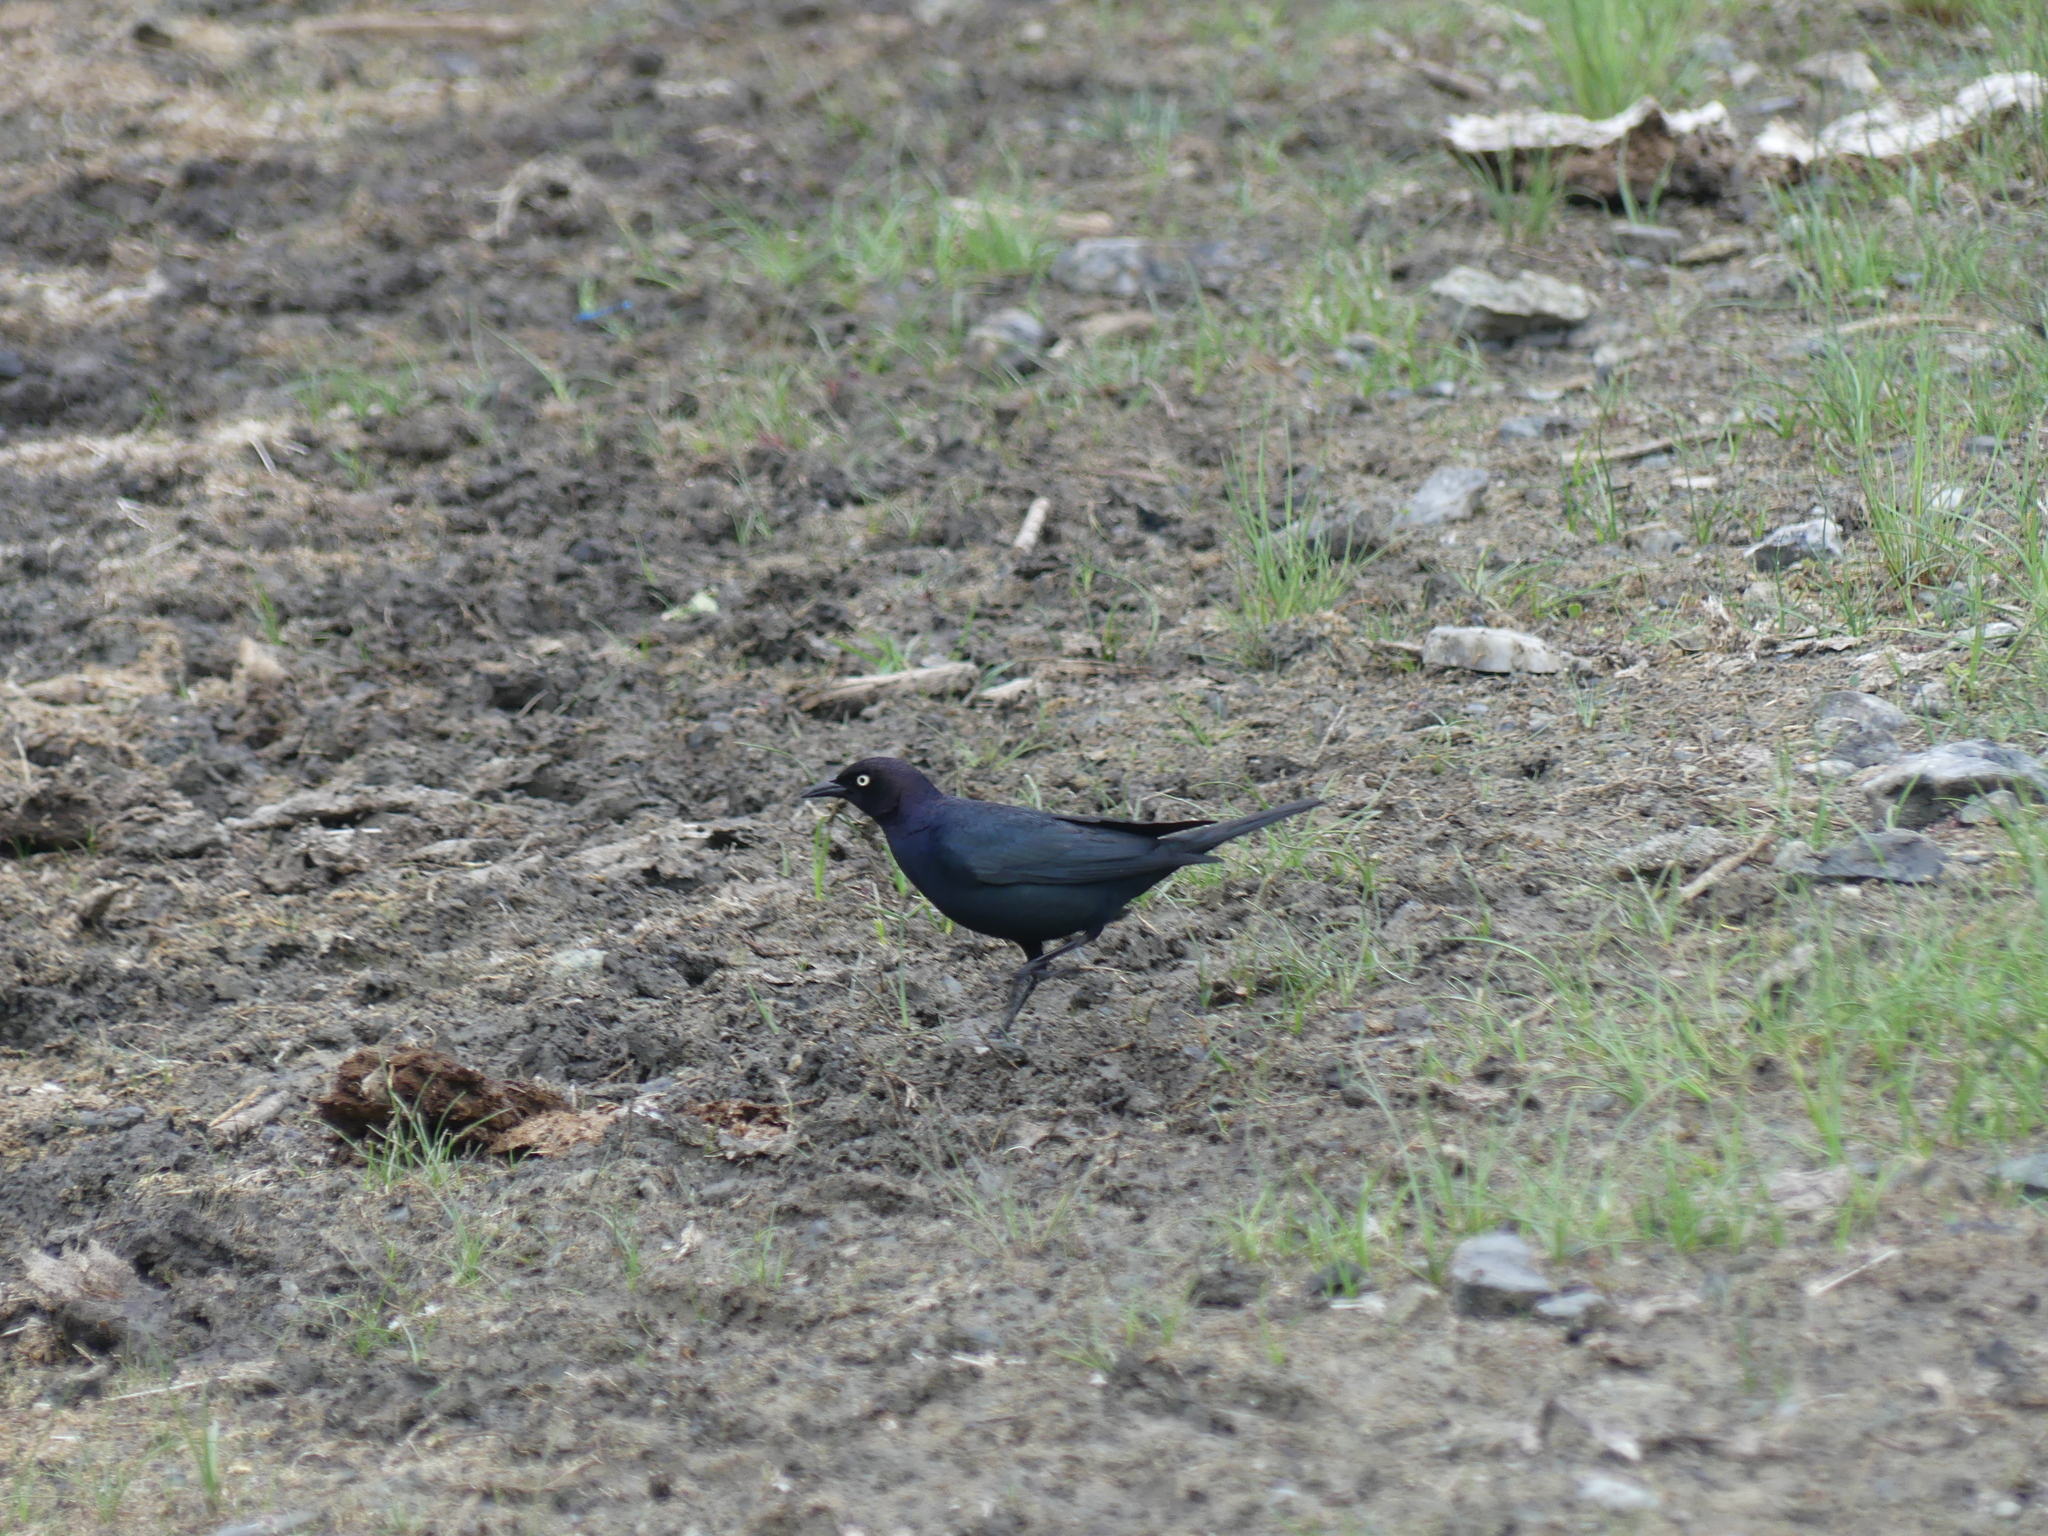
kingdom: Animalia
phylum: Chordata
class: Aves
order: Passeriformes
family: Icteridae
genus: Euphagus
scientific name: Euphagus cyanocephalus
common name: Brewer's blackbird
